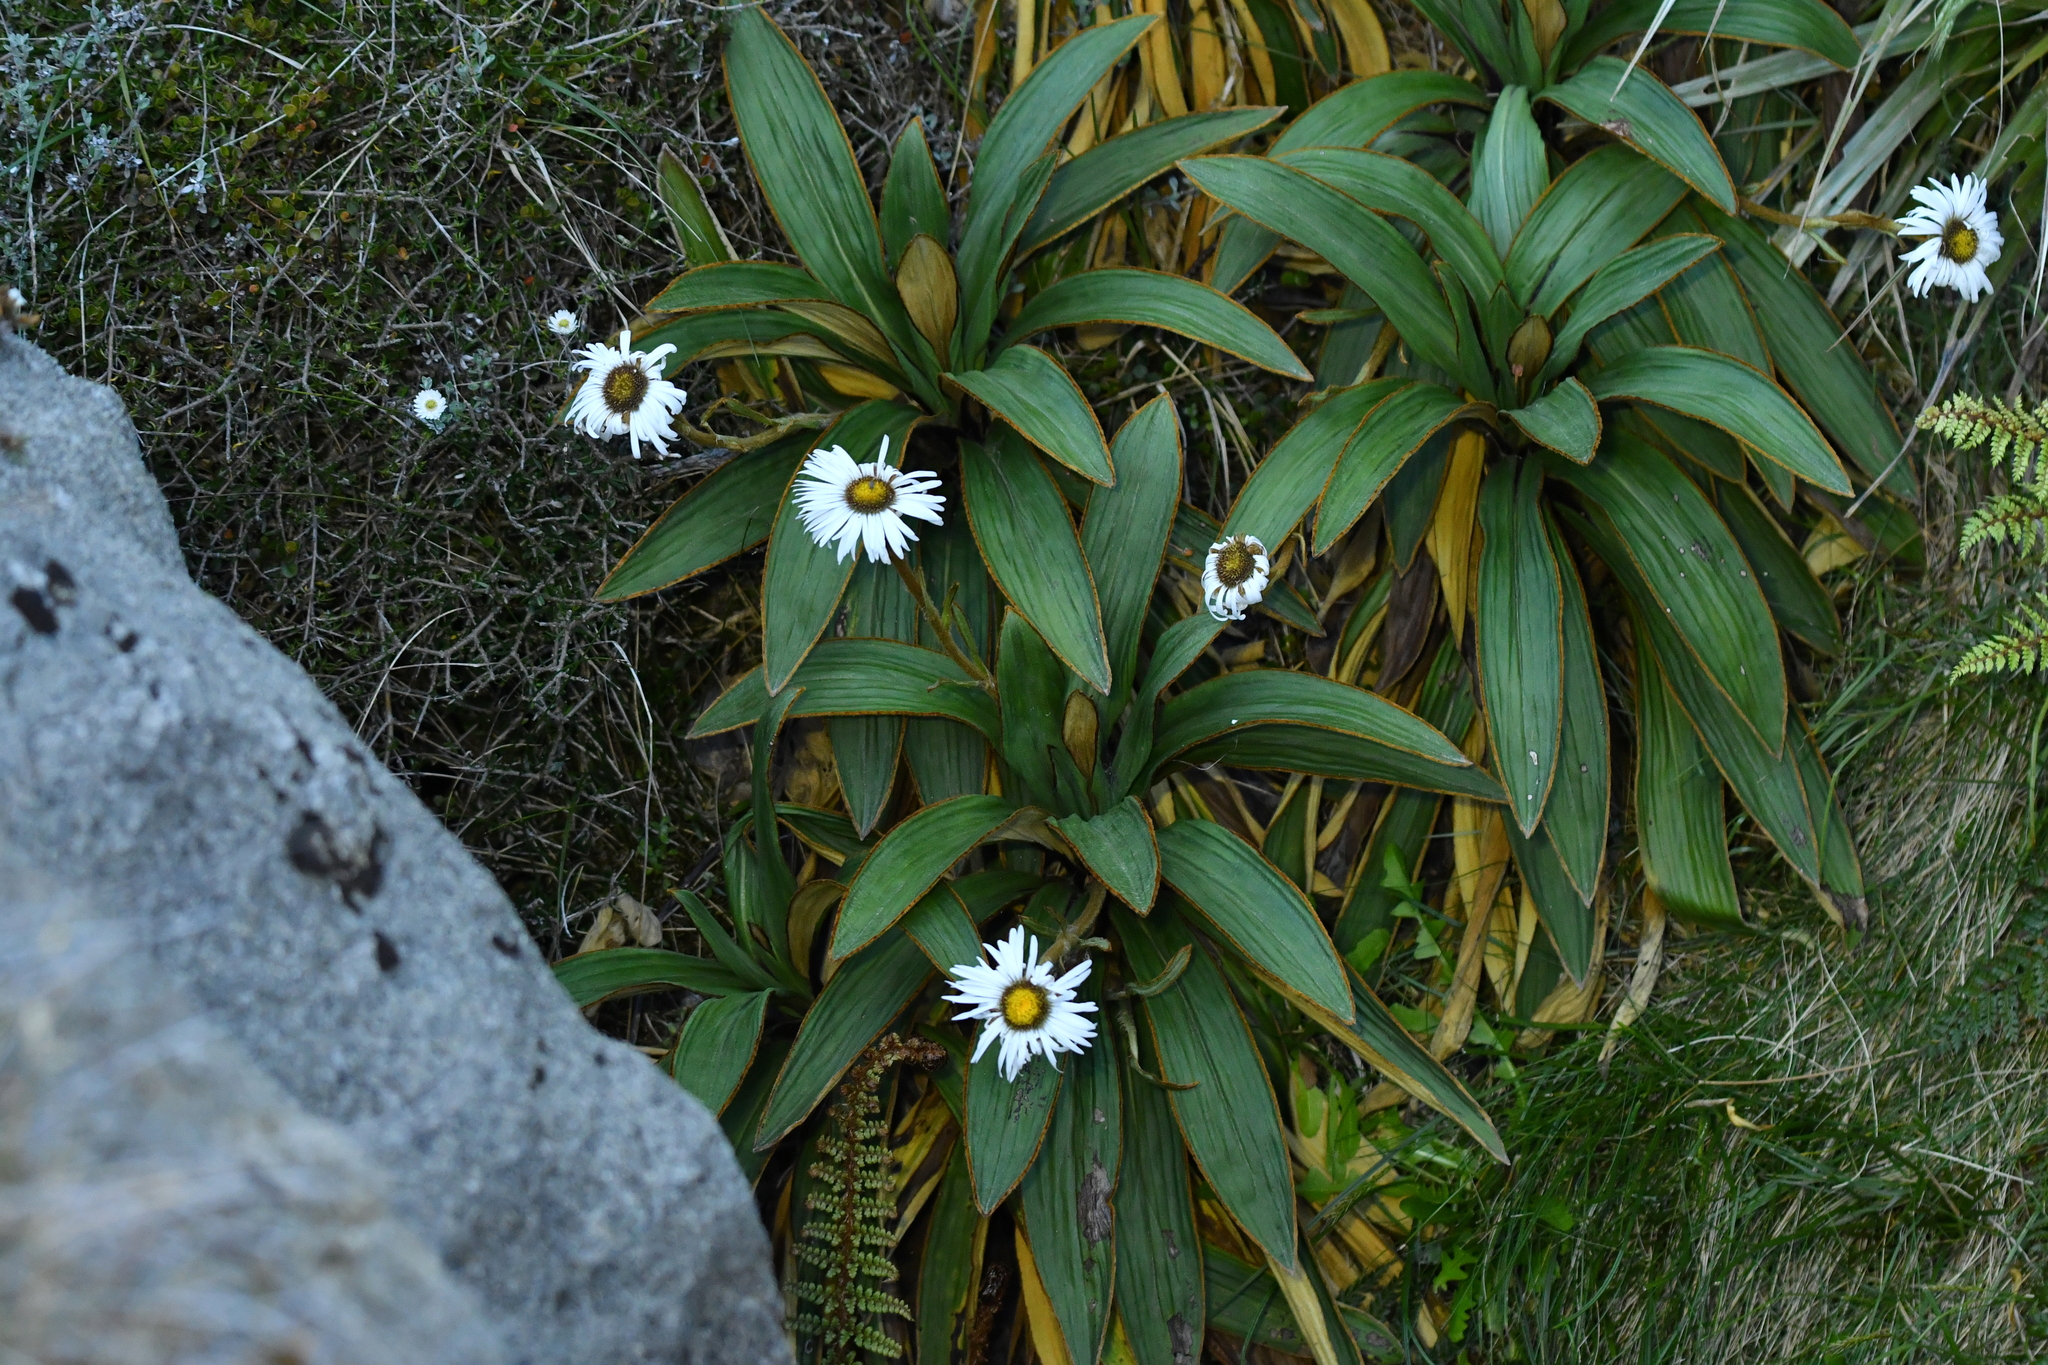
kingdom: Plantae
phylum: Tracheophyta
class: Magnoliopsida
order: Asterales
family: Asteraceae
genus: Celmisia
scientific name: Celmisia traversii
